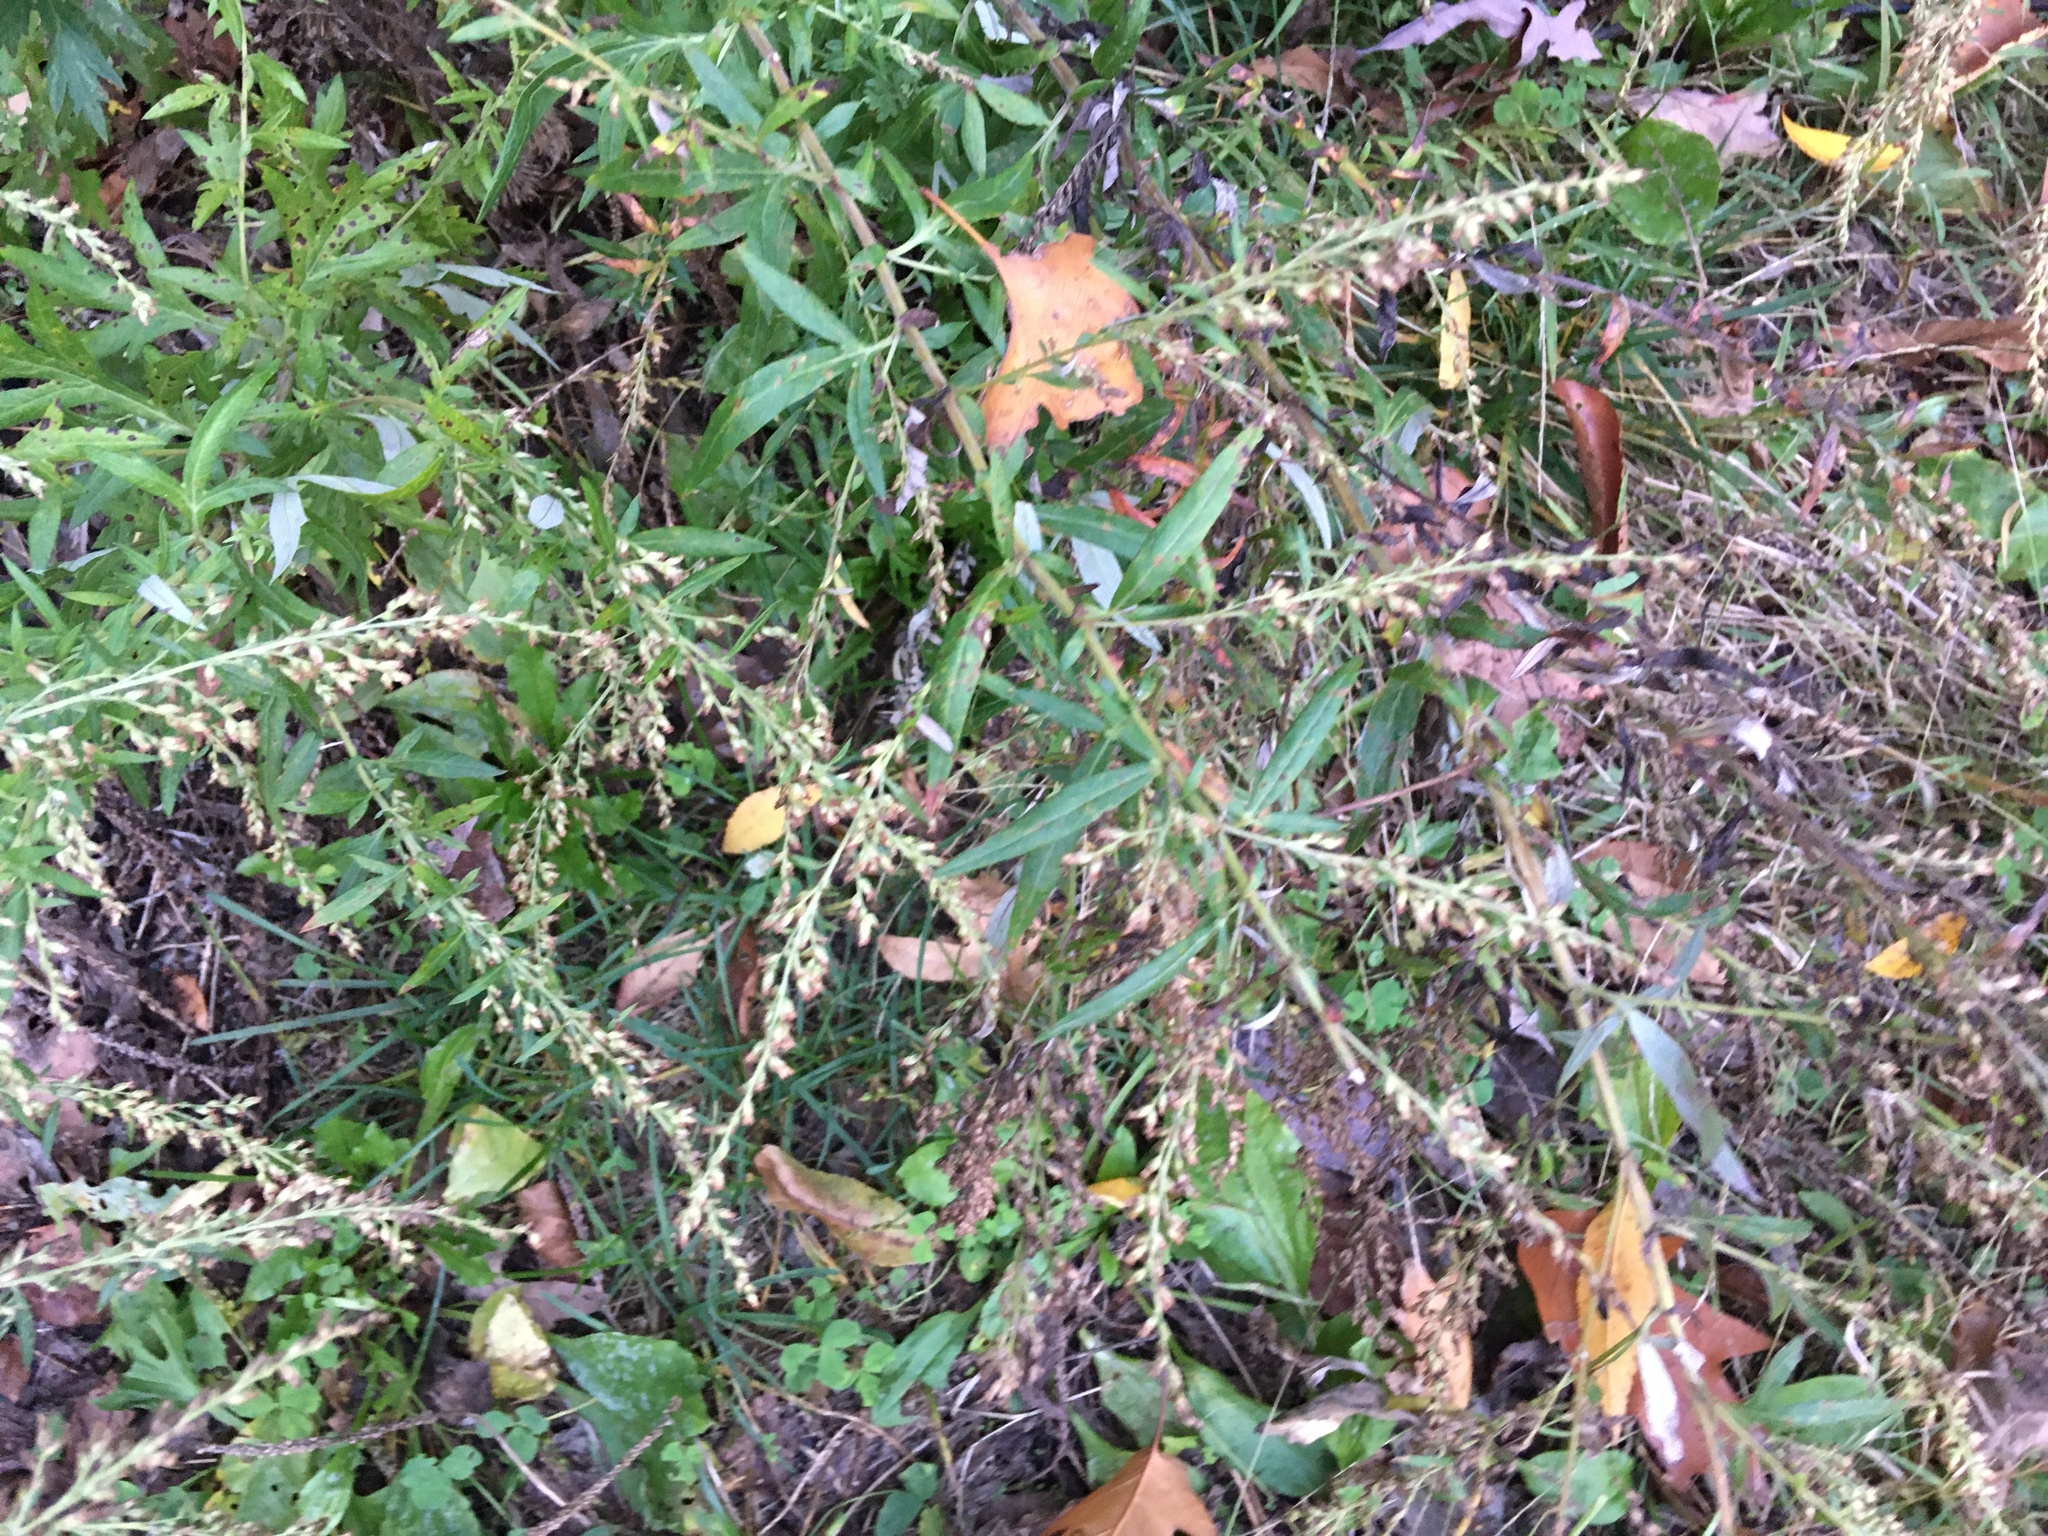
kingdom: Plantae
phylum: Tracheophyta
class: Magnoliopsida
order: Asterales
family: Asteraceae
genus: Artemisia
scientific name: Artemisia vulgaris
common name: Mugwort
